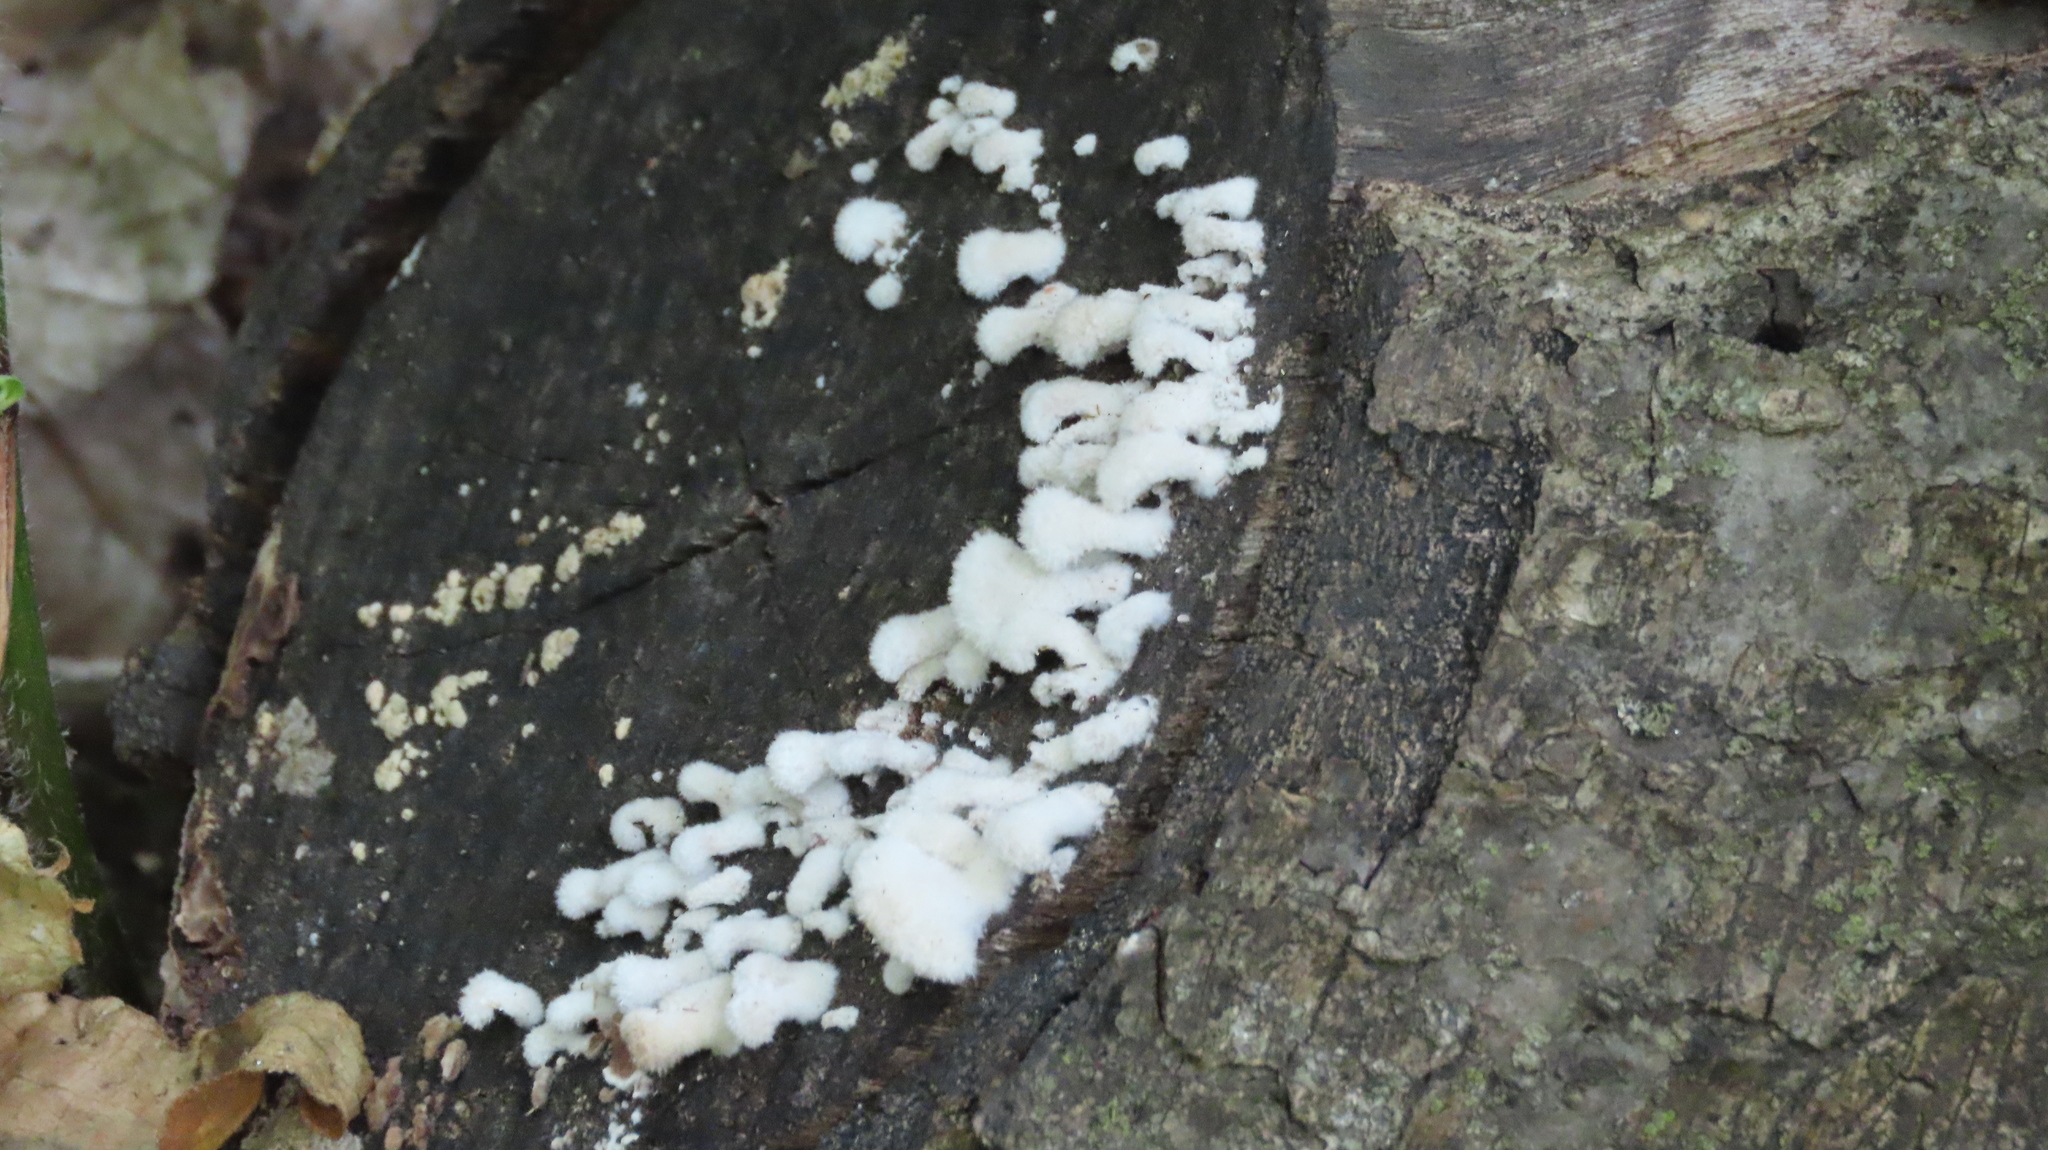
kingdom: Fungi
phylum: Basidiomycota
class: Agaricomycetes
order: Agaricales
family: Schizophyllaceae
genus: Schizophyllum
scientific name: Schizophyllum commune
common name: Common porecrust
